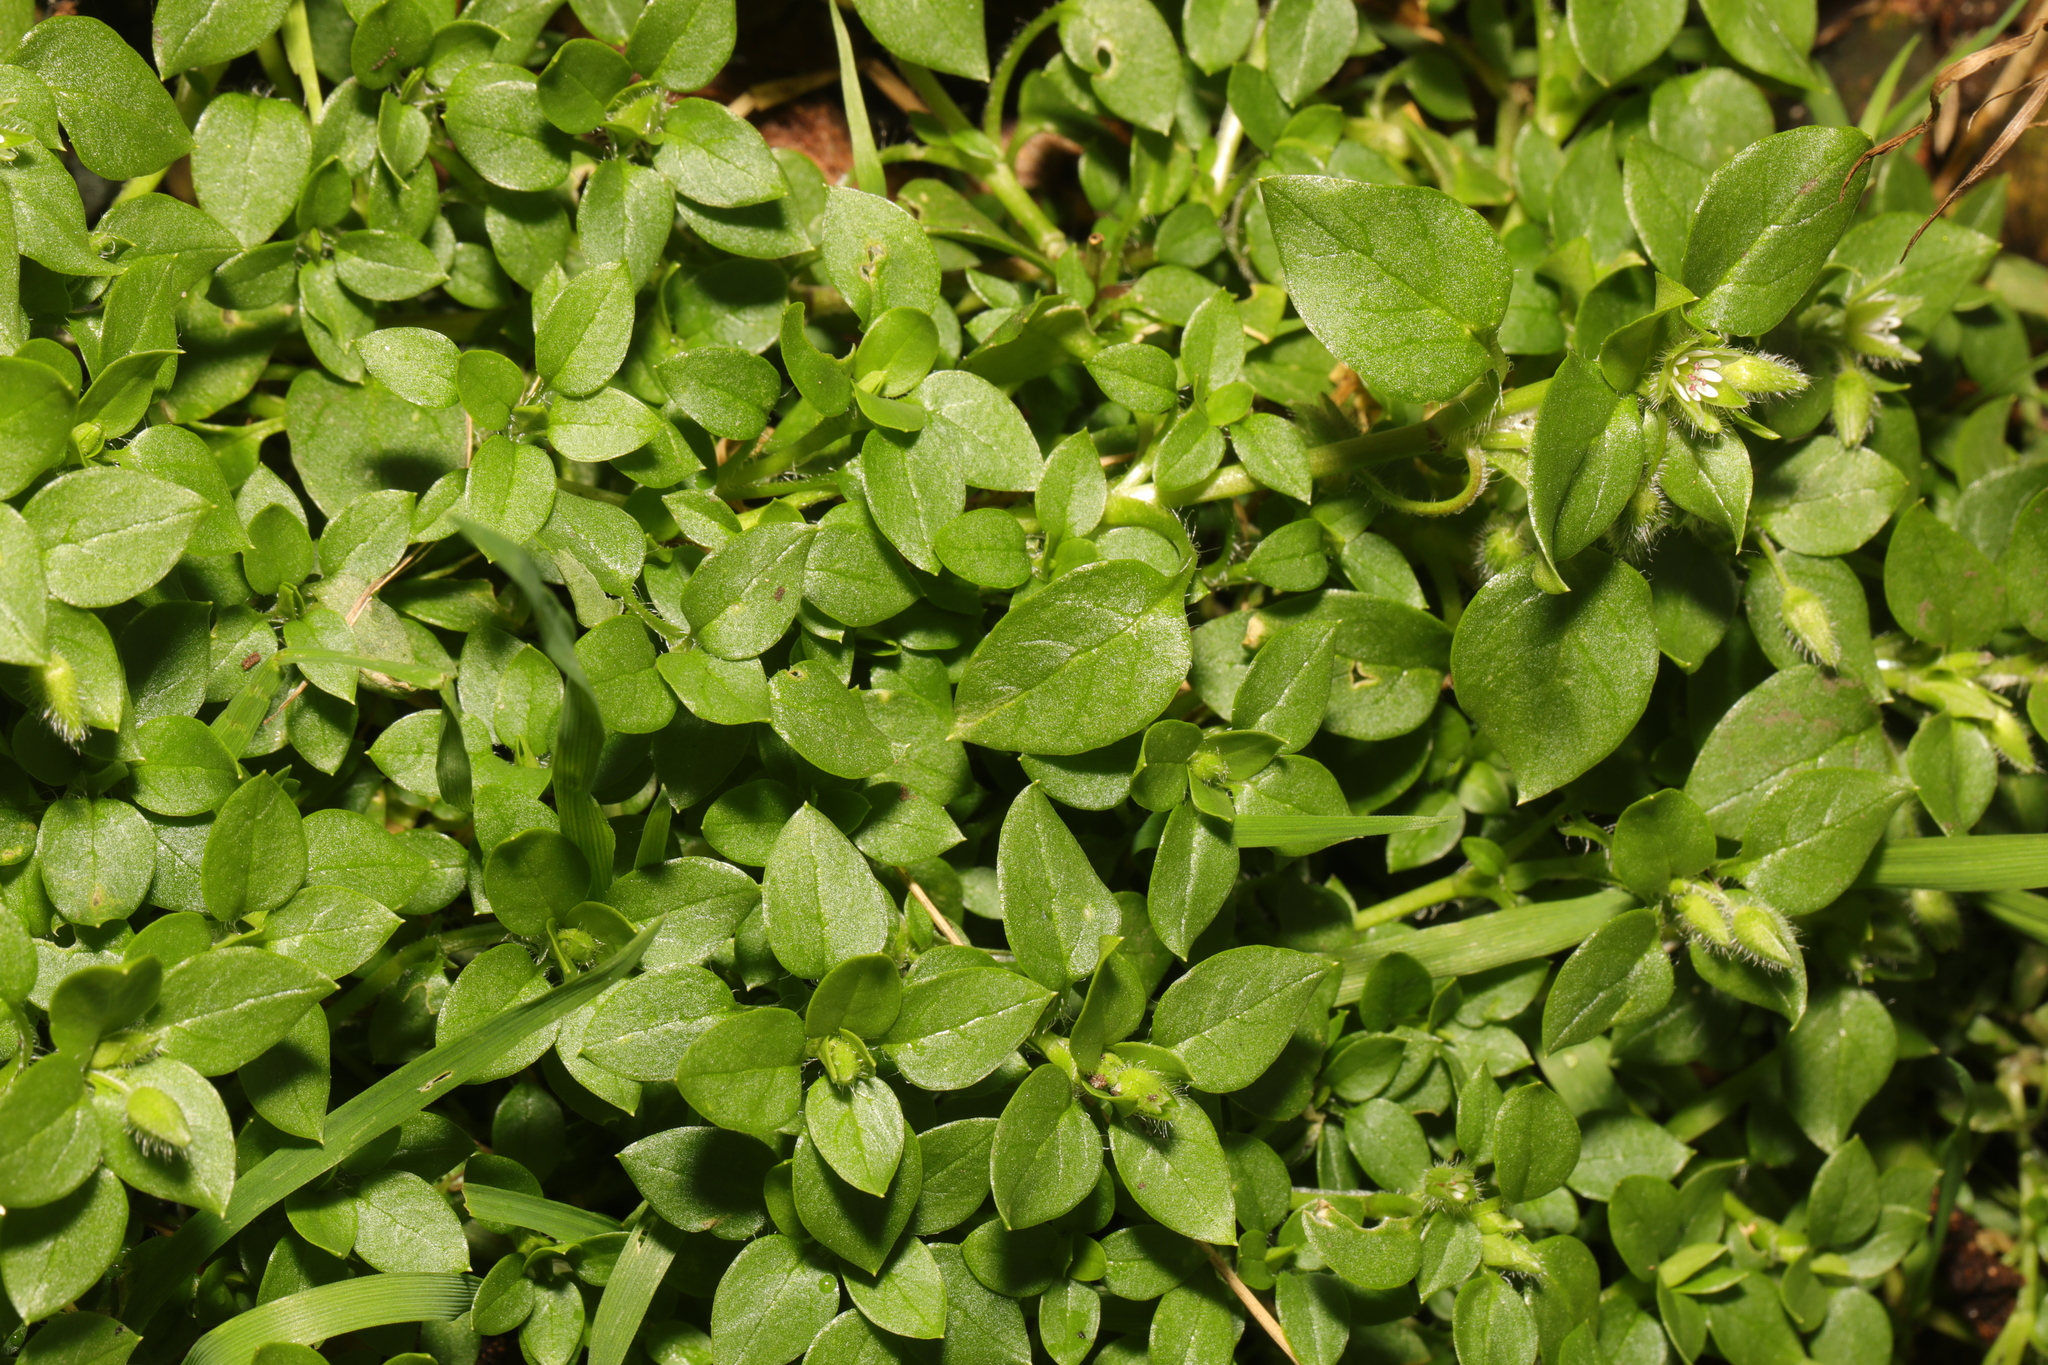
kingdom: Plantae
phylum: Tracheophyta
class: Magnoliopsida
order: Caryophyllales
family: Caryophyllaceae
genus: Stellaria
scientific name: Stellaria media
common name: Common chickweed
